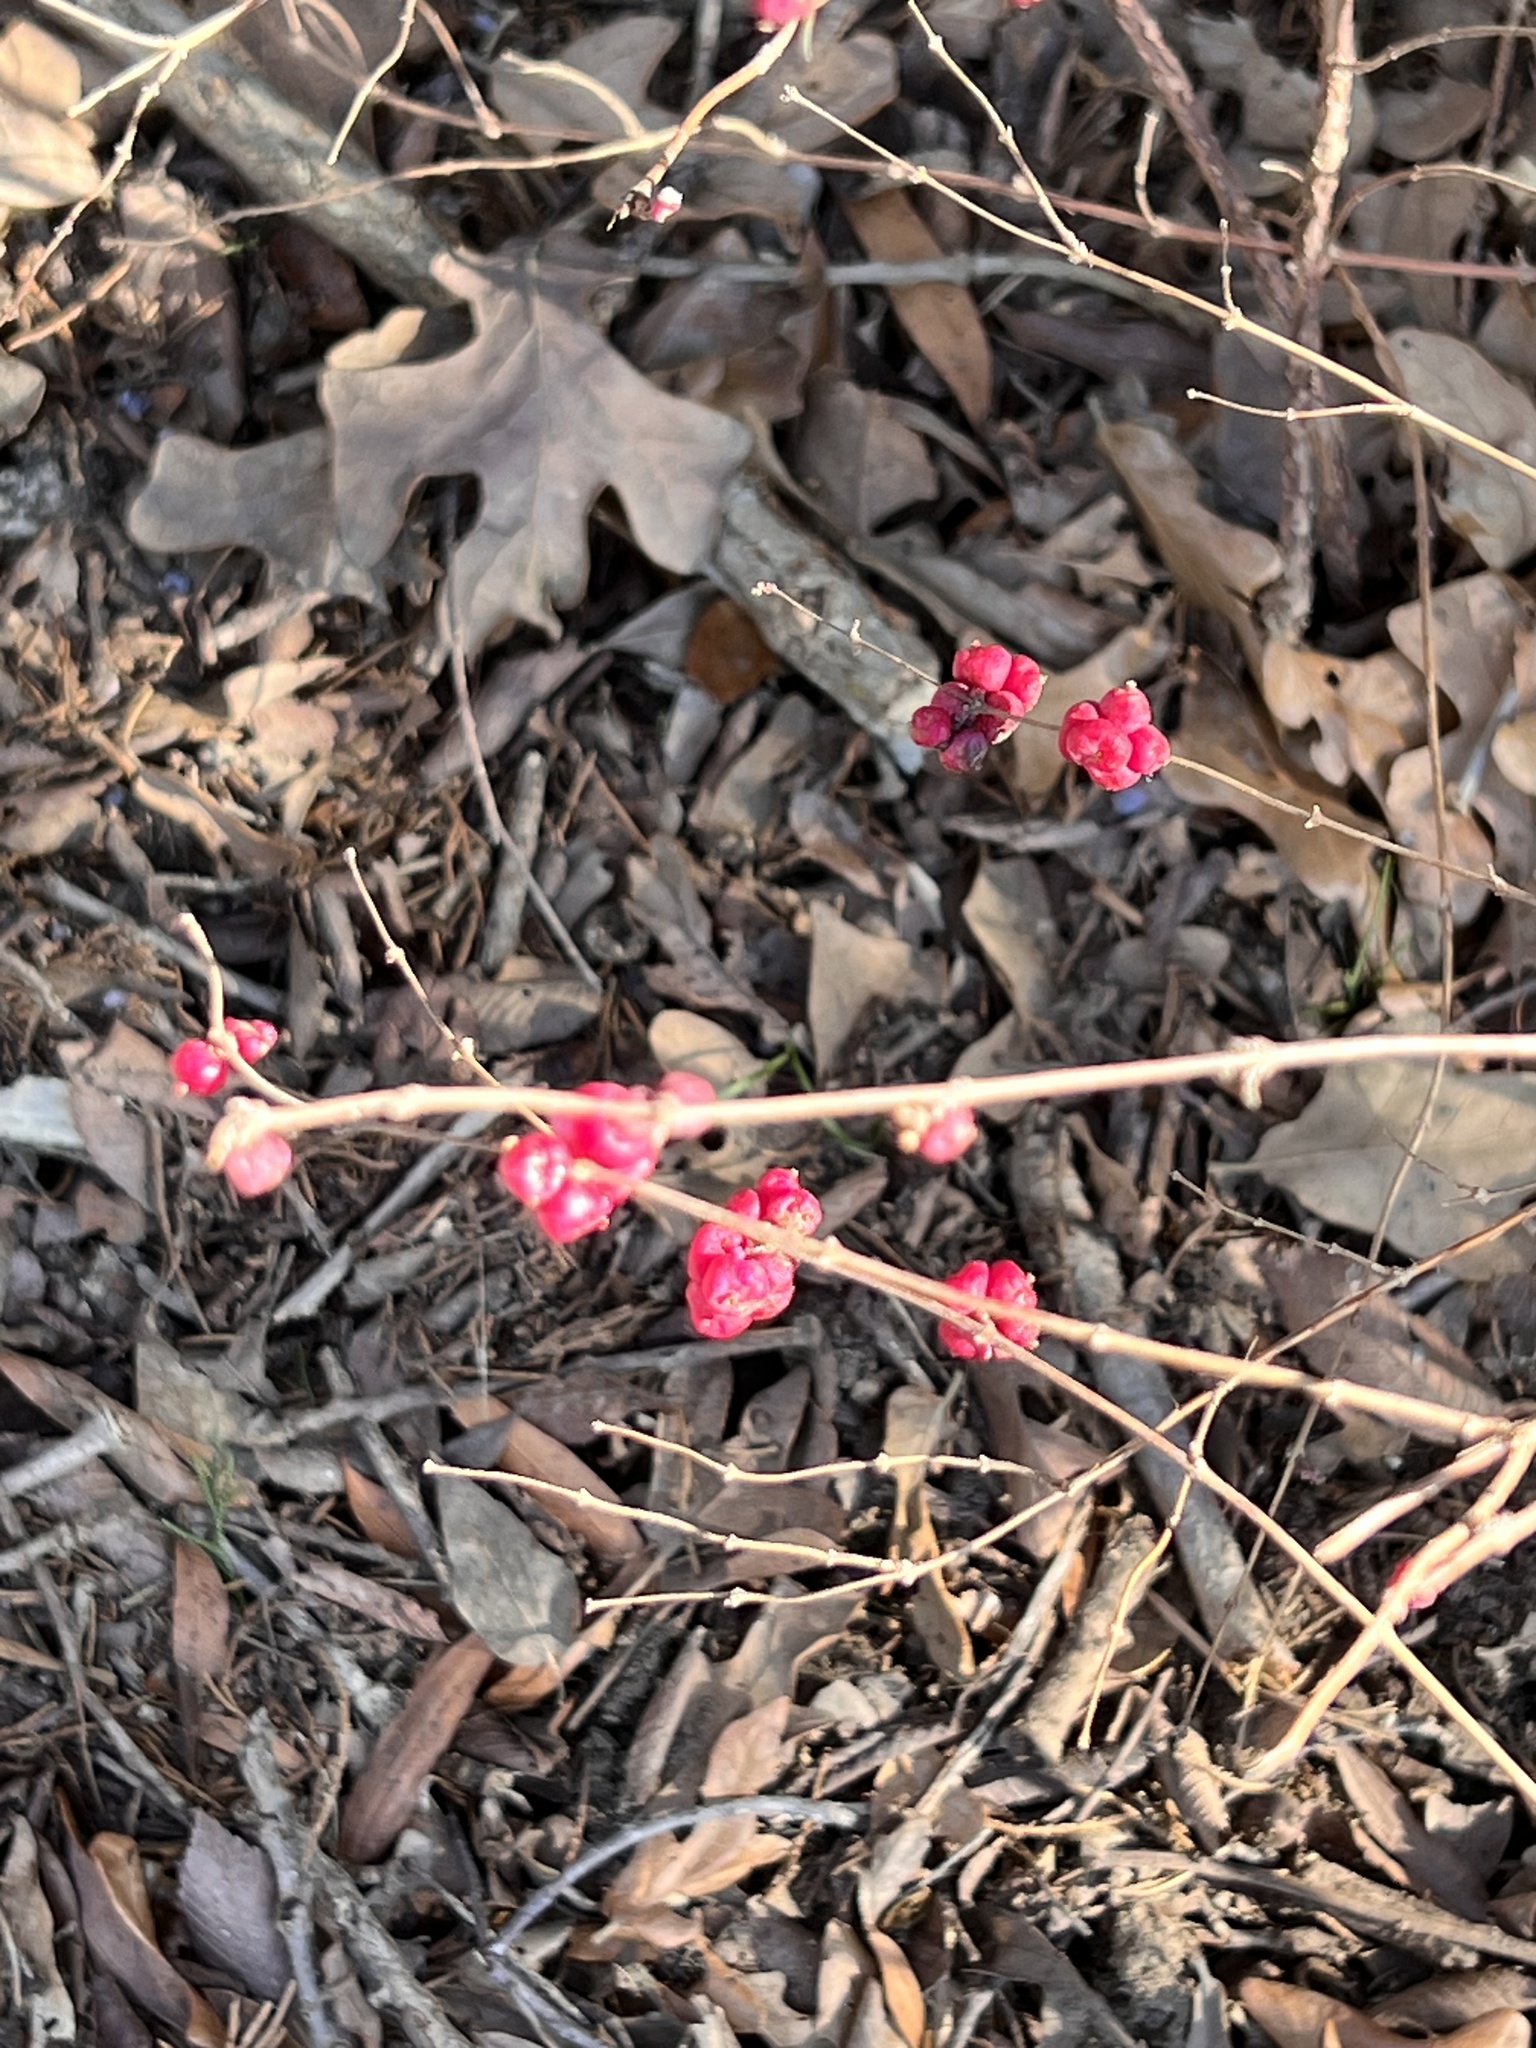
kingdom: Plantae
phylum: Tracheophyta
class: Magnoliopsida
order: Dipsacales
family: Caprifoliaceae
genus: Symphoricarpos
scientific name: Symphoricarpos orbiculatus
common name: Coralberry
